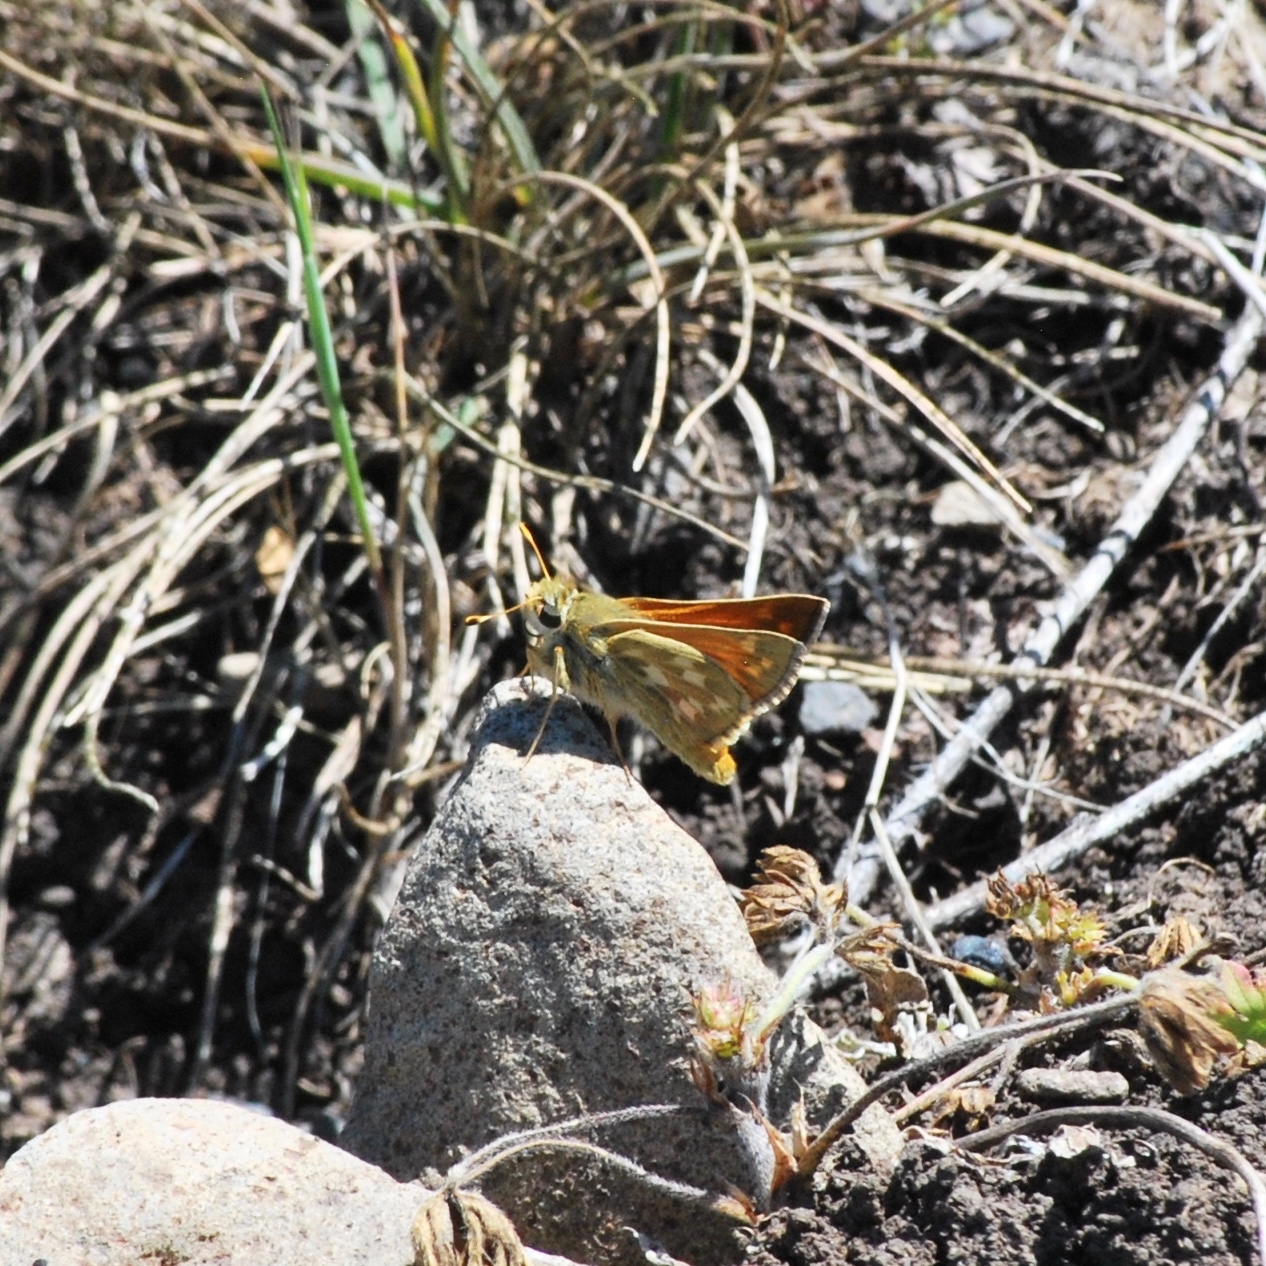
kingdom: Animalia
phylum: Arthropoda
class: Insecta
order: Lepidoptera
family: Hesperiidae
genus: Hesperia
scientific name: Hesperia juba
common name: Juba skipper
